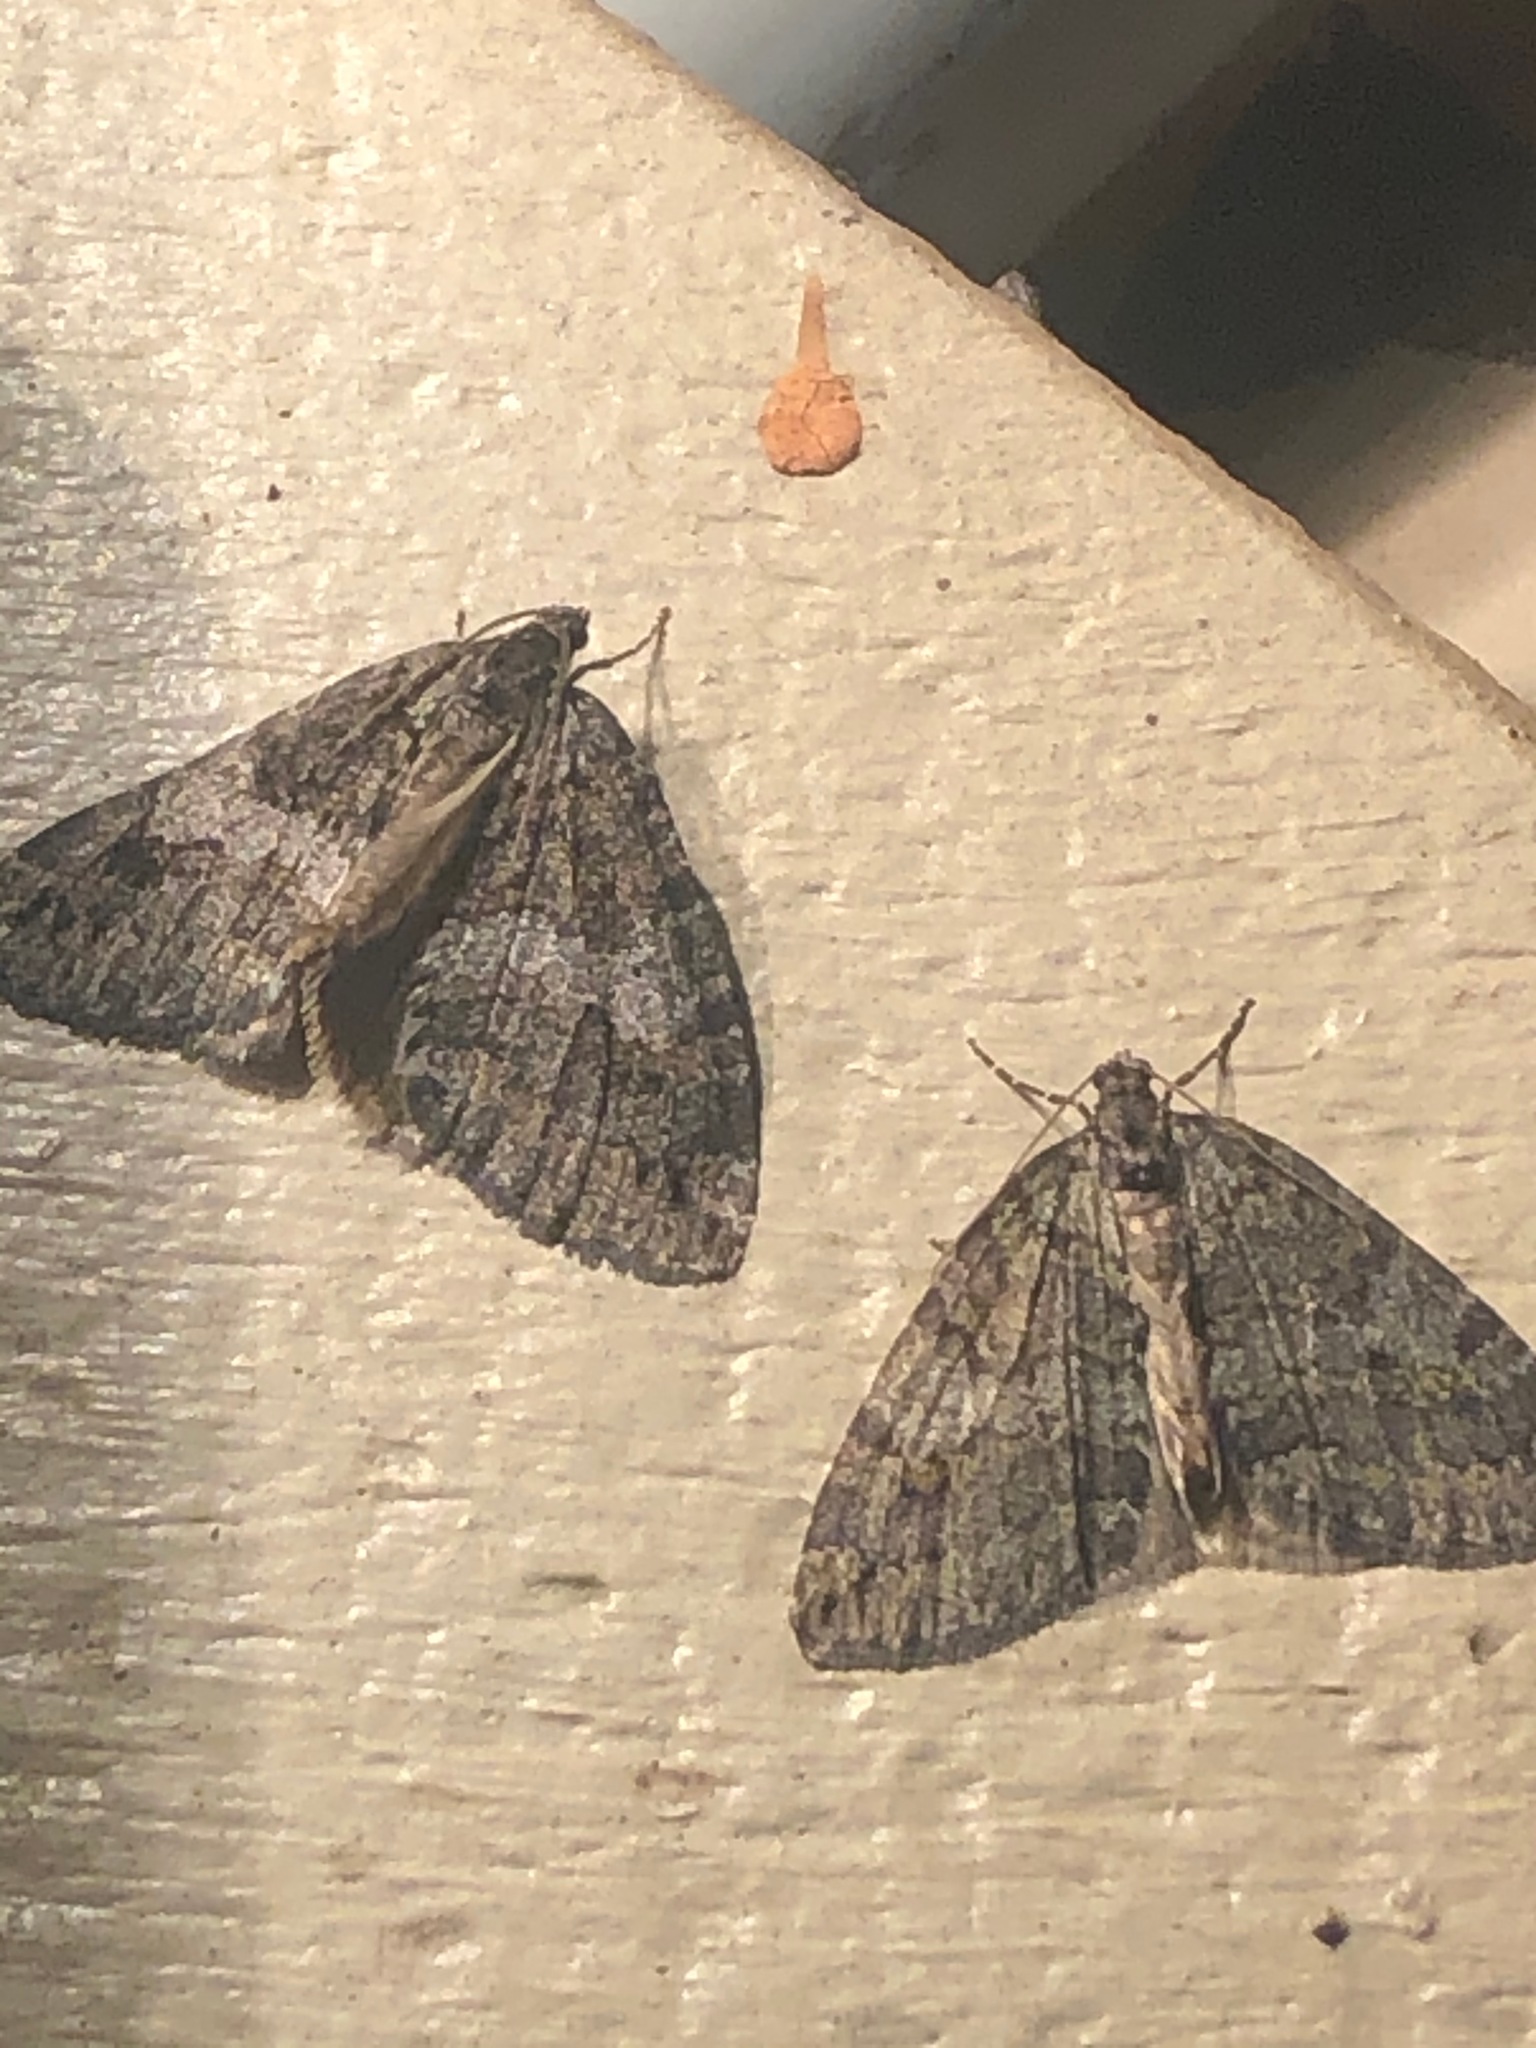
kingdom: Animalia
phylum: Arthropoda
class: Insecta
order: Lepidoptera
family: Geometridae
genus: Hydriomena
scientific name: Hydriomena nubilofasciata
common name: Oak winter highflier moth
